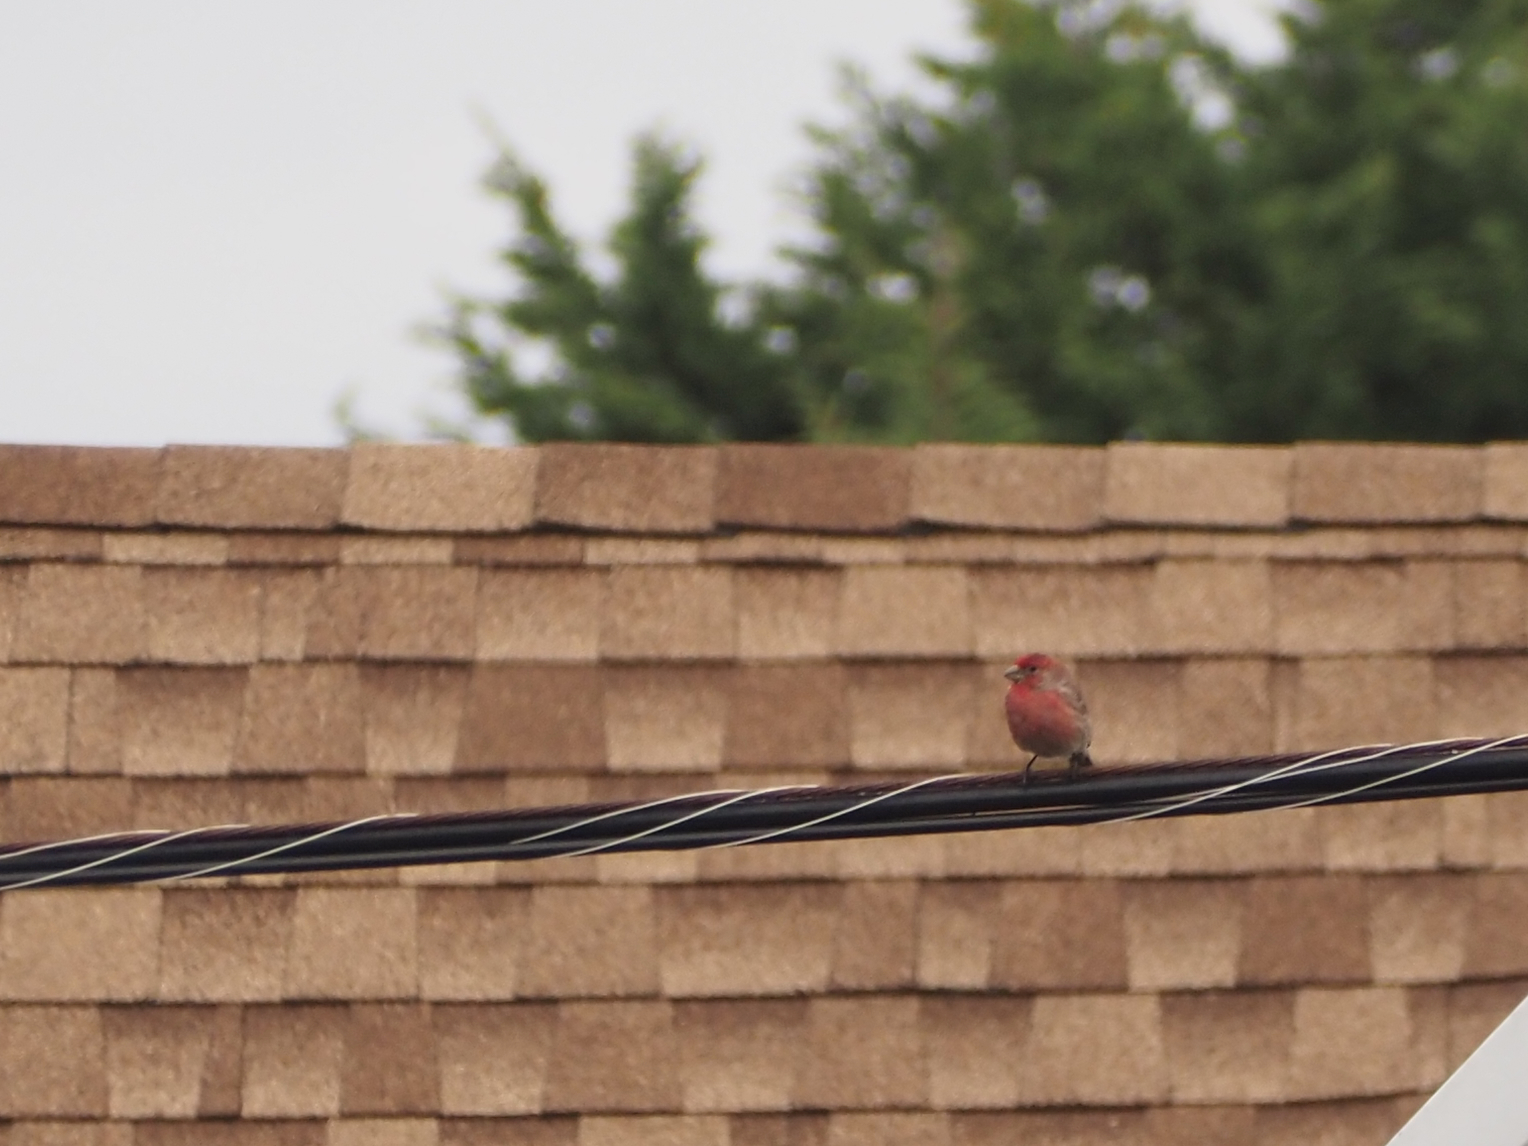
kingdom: Animalia
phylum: Chordata
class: Aves
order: Passeriformes
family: Fringillidae
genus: Haemorhous
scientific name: Haemorhous mexicanus
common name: House finch
